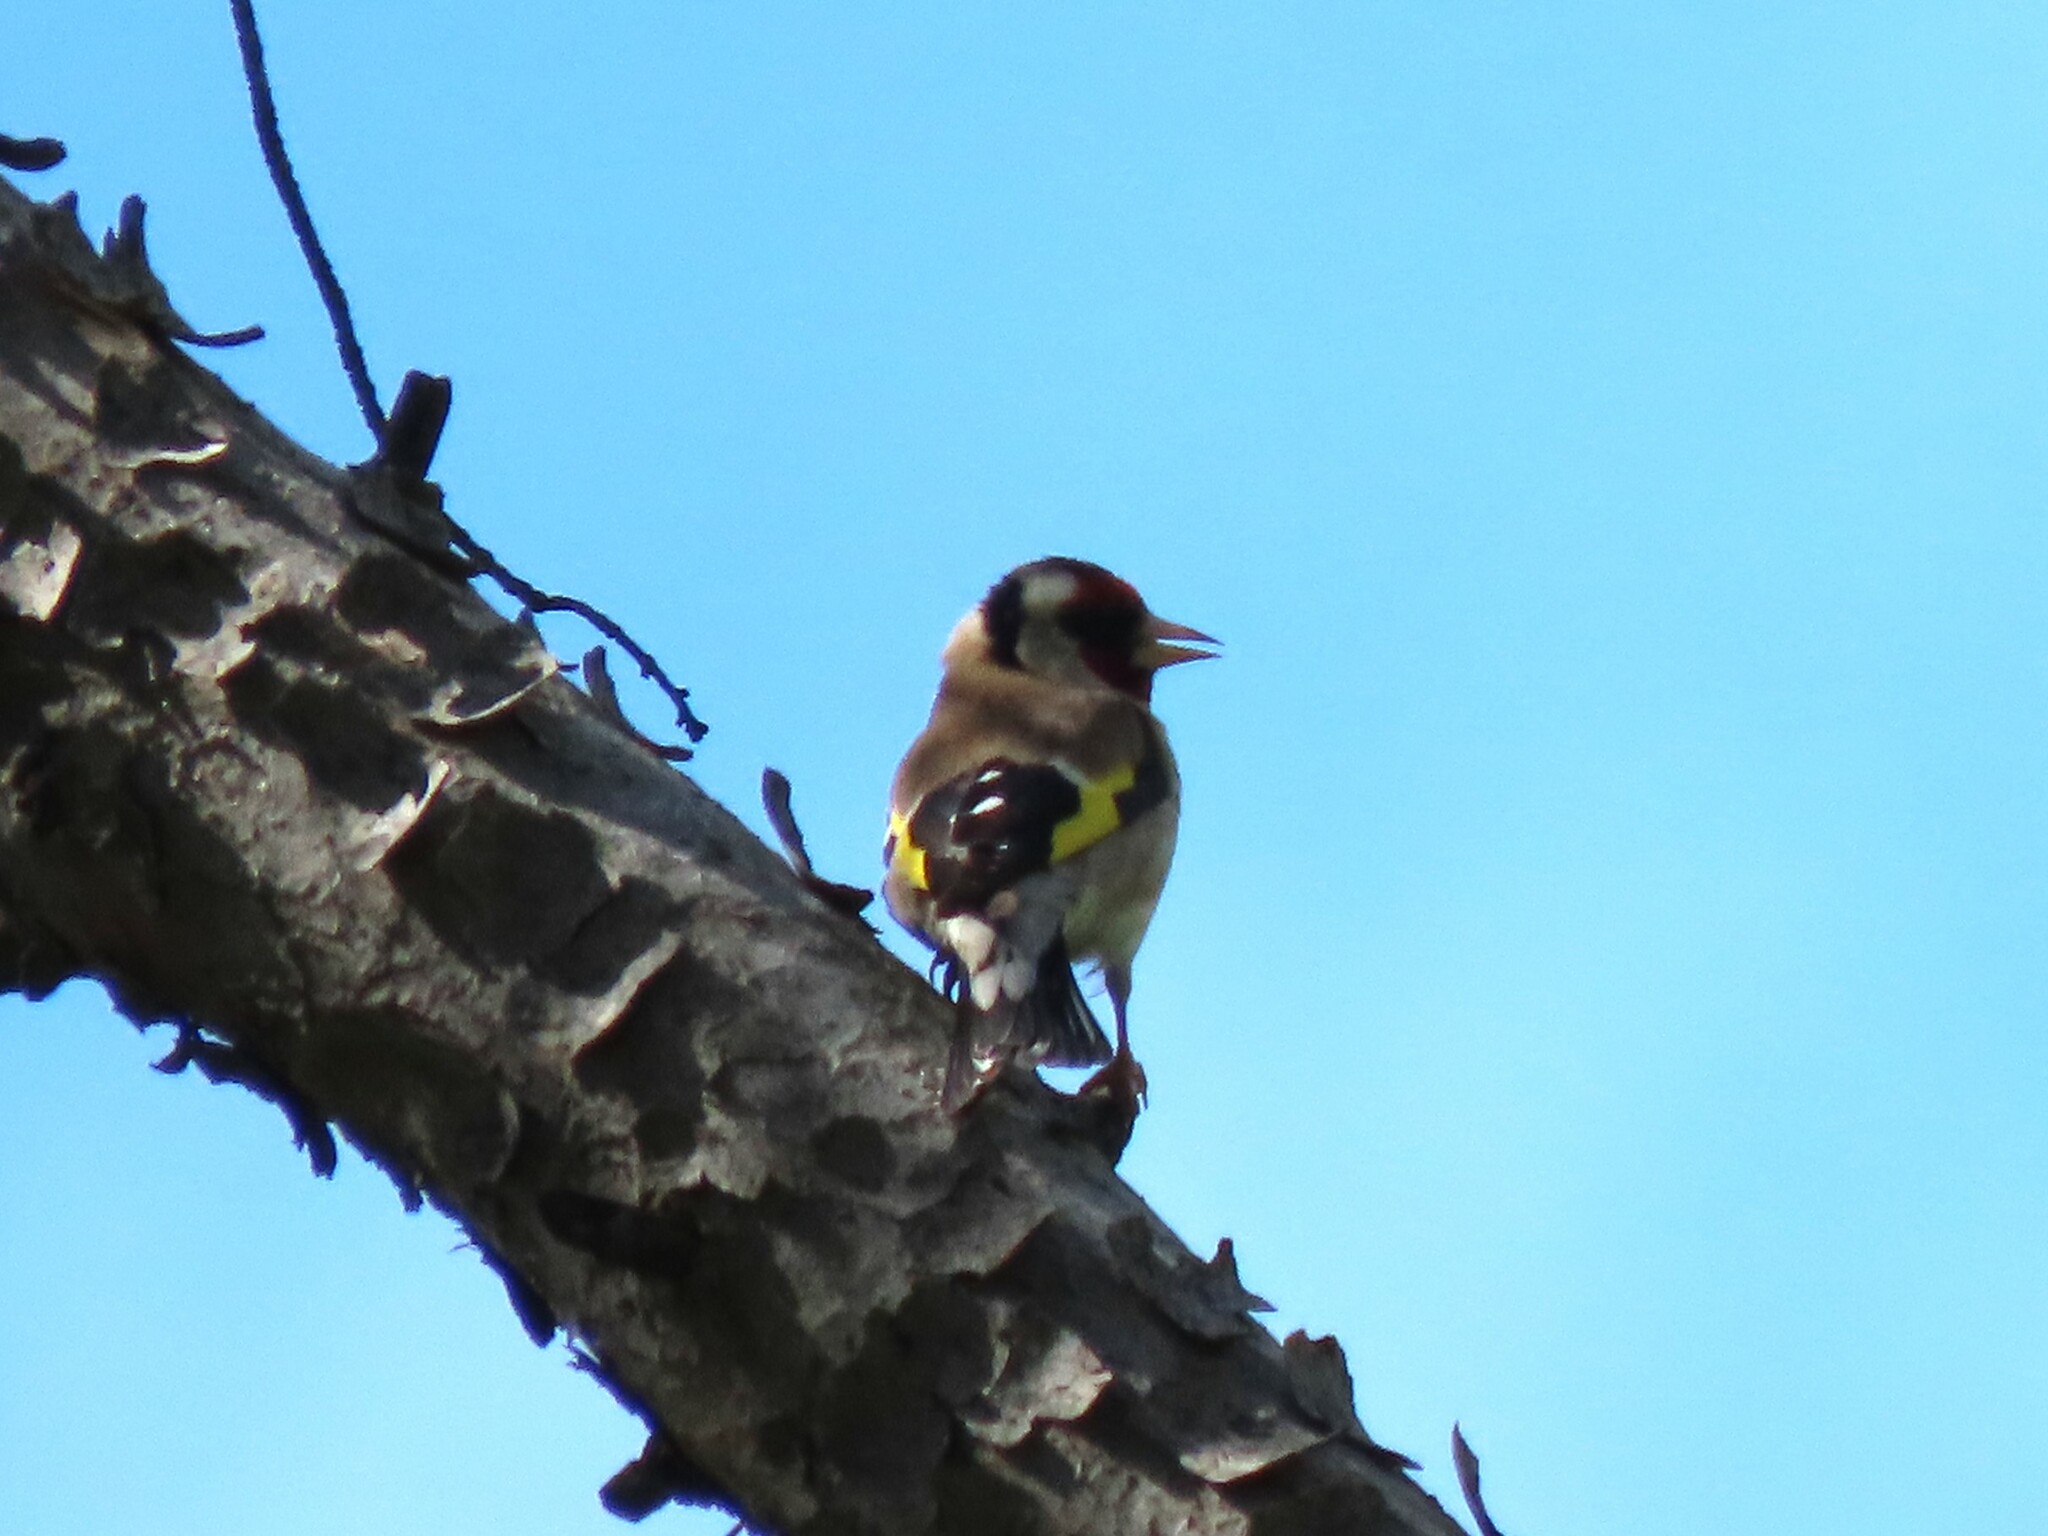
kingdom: Animalia
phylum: Chordata
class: Aves
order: Passeriformes
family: Fringillidae
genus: Carduelis
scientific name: Carduelis carduelis
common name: European goldfinch
